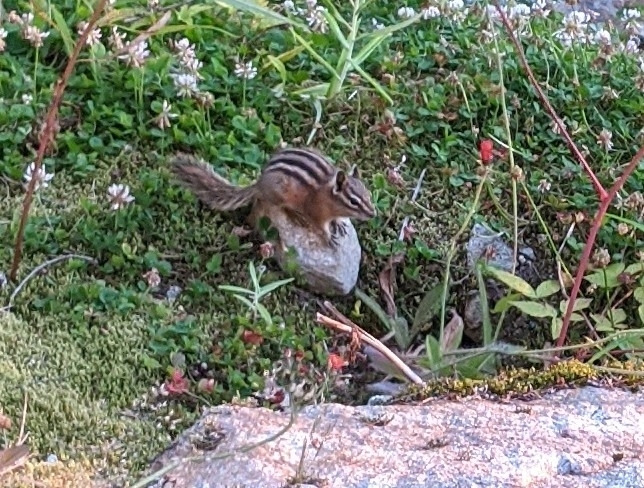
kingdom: Animalia
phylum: Chordata
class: Mammalia
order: Rodentia
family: Sciuridae
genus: Tamias
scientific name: Tamias amoenus
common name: Yellow-pine chipmunk
